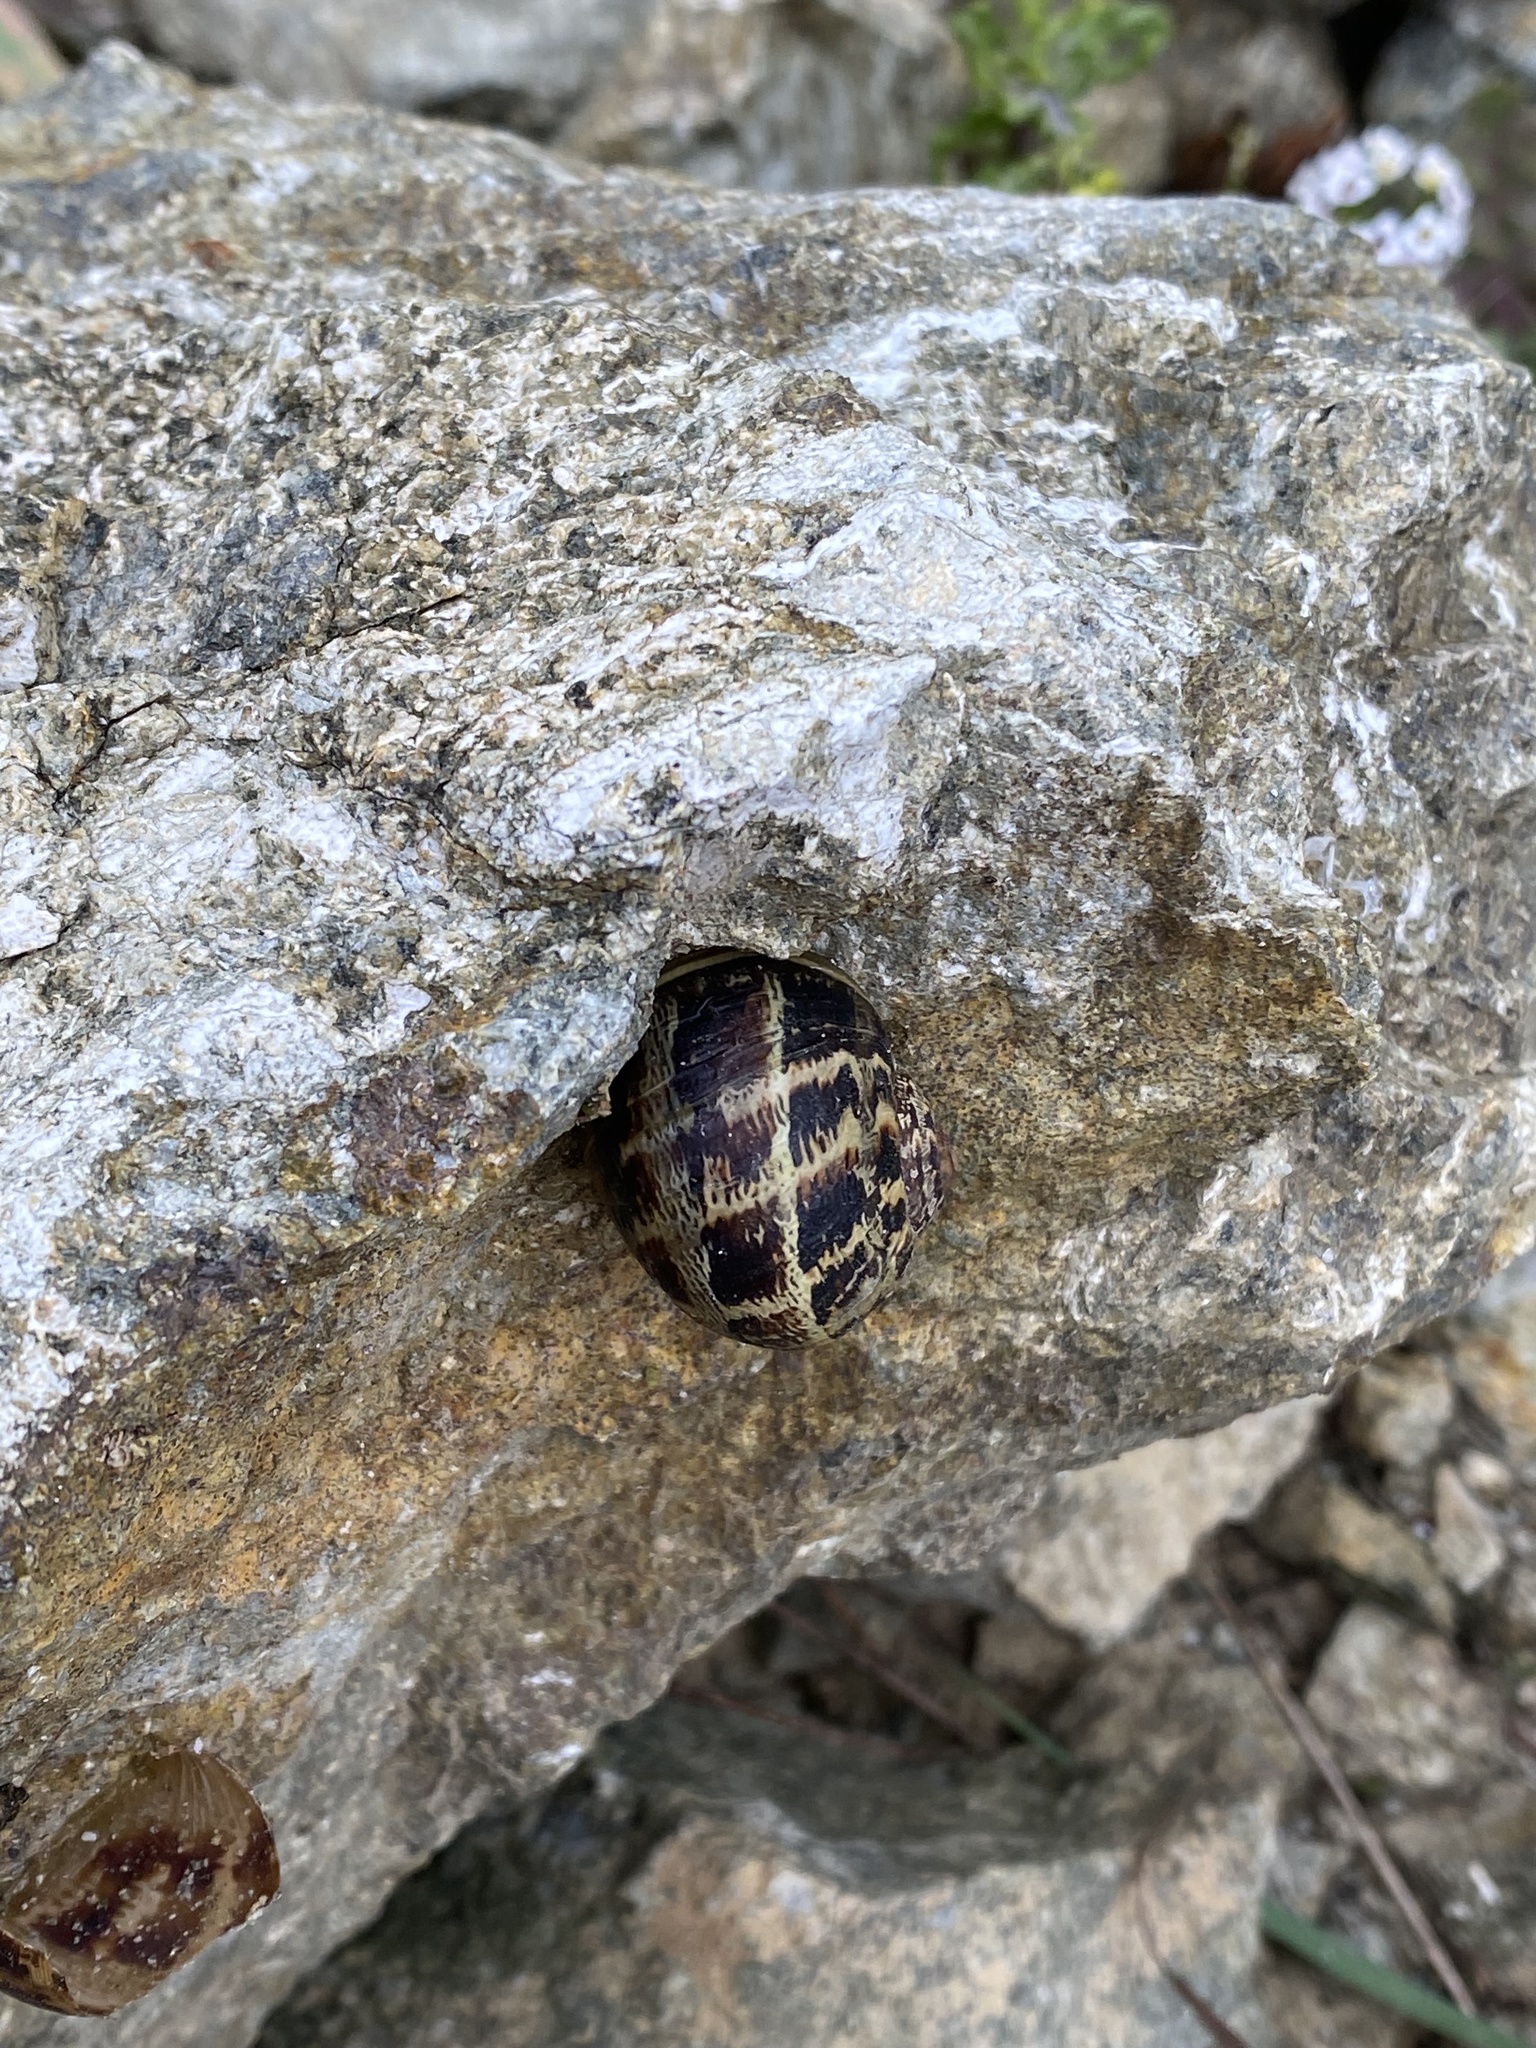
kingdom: Animalia
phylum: Mollusca
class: Gastropoda
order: Stylommatophora
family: Helicidae
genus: Cornu
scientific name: Cornu aspersum
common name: Brown garden snail
